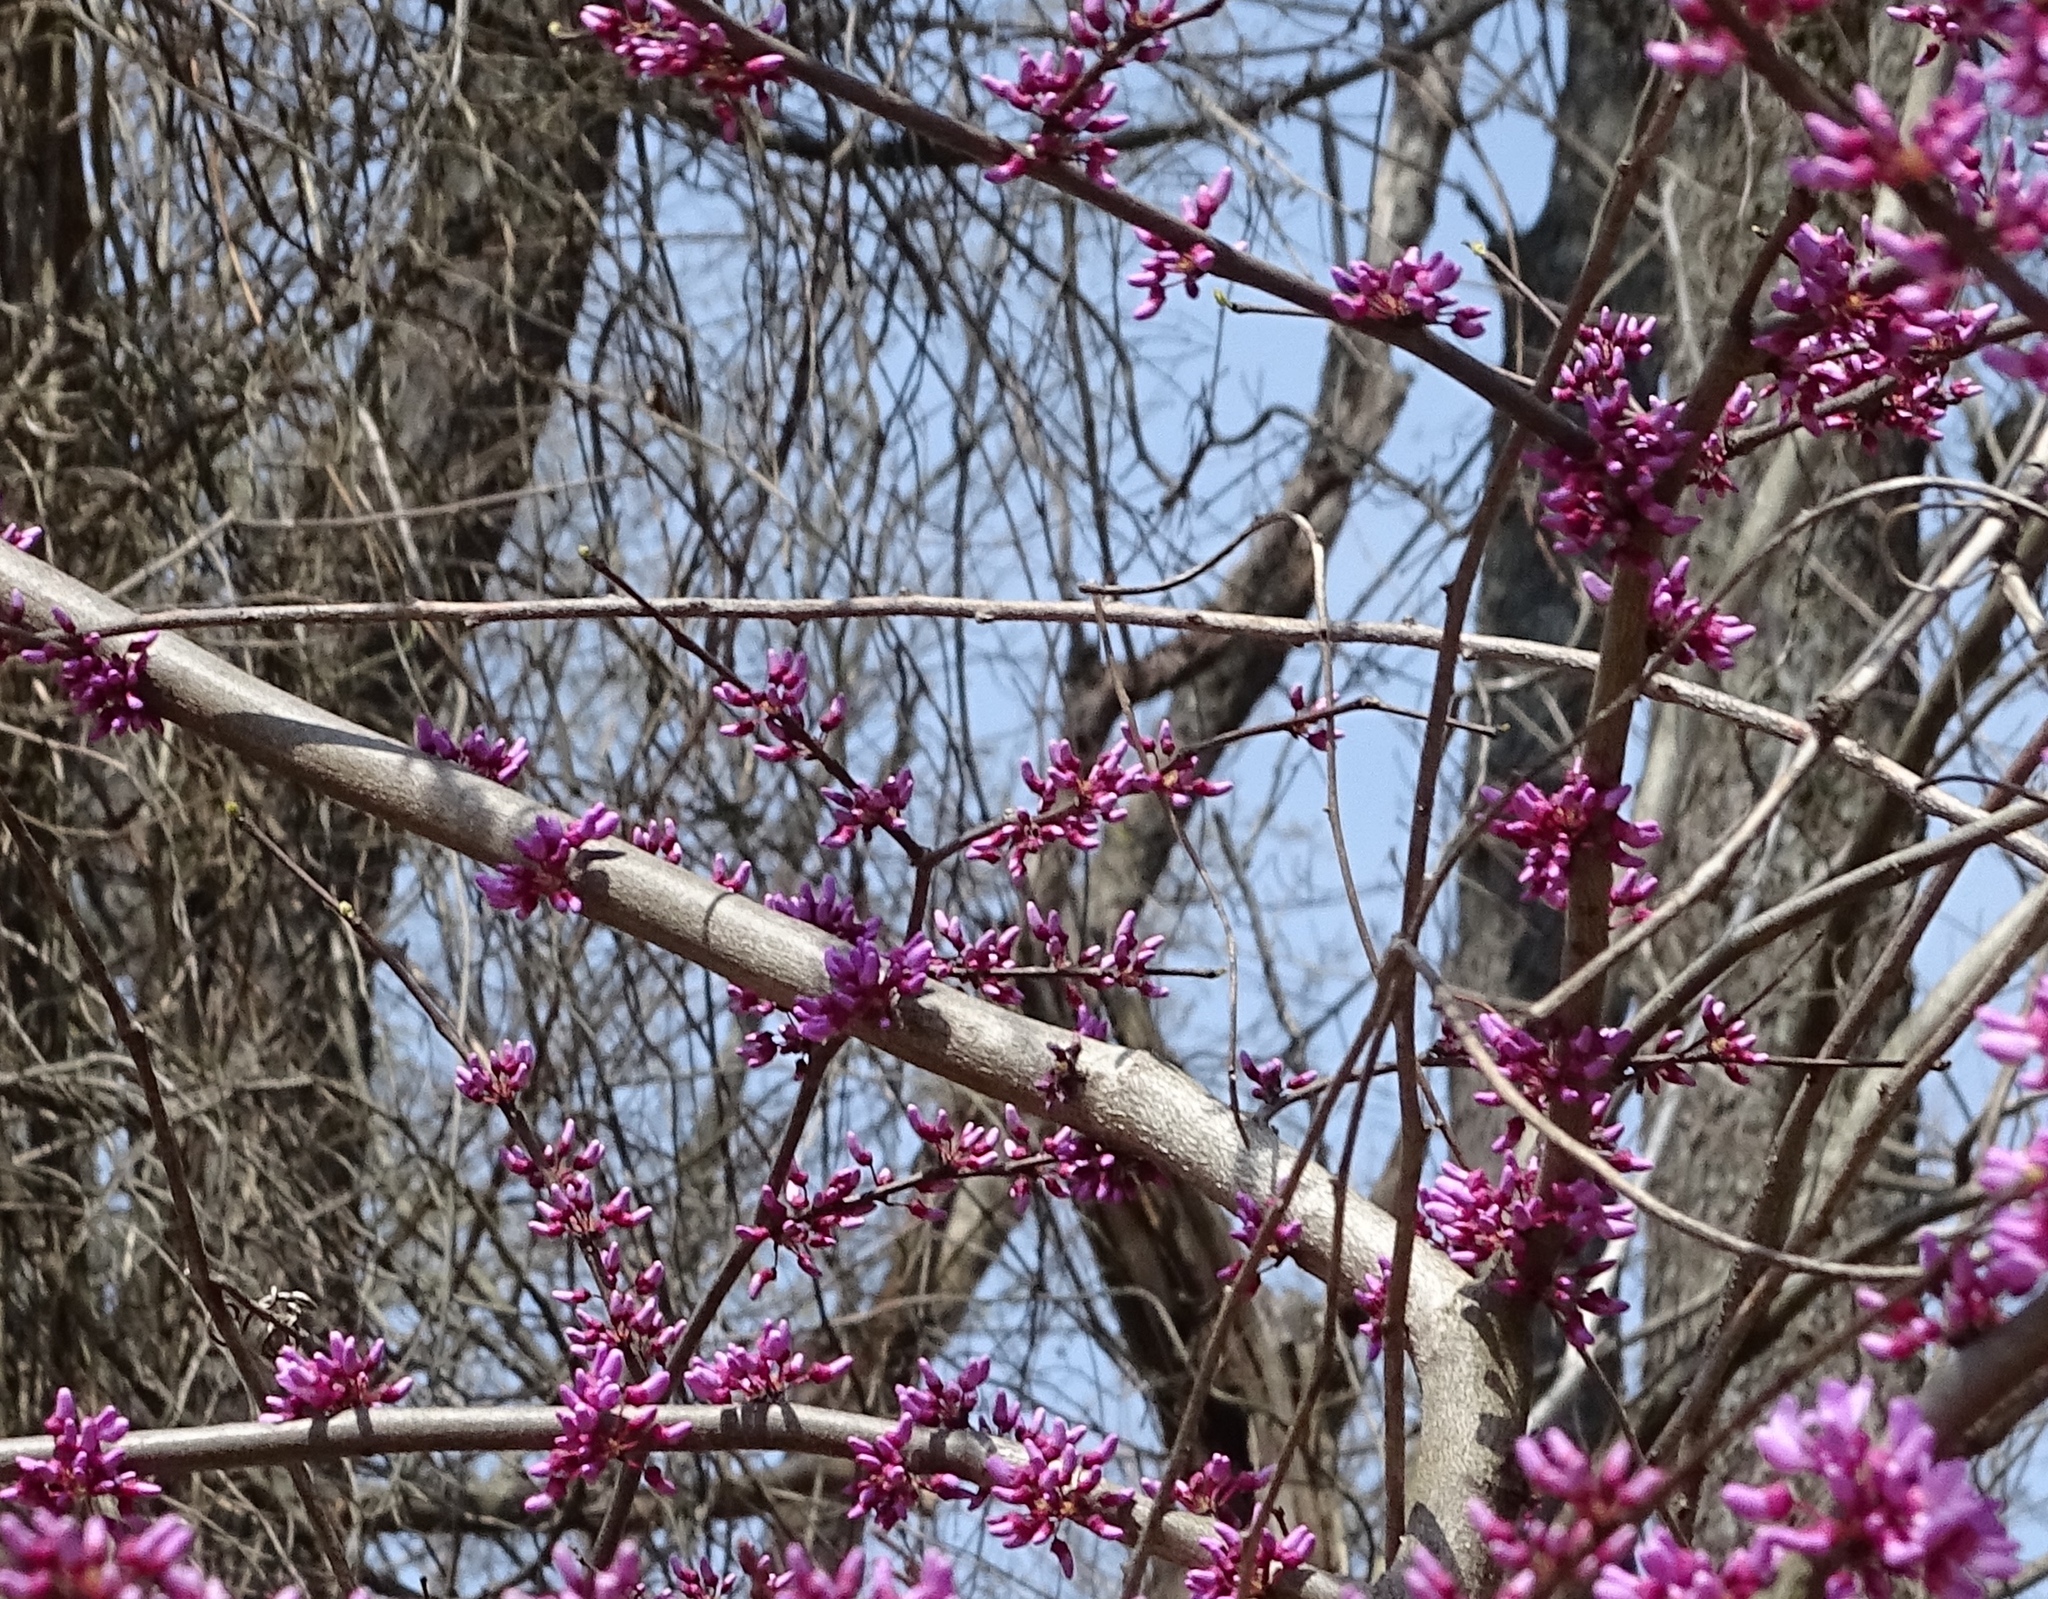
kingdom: Plantae
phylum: Tracheophyta
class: Magnoliopsida
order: Fabales
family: Fabaceae
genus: Cercis
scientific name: Cercis canadensis
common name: Eastern redbud
